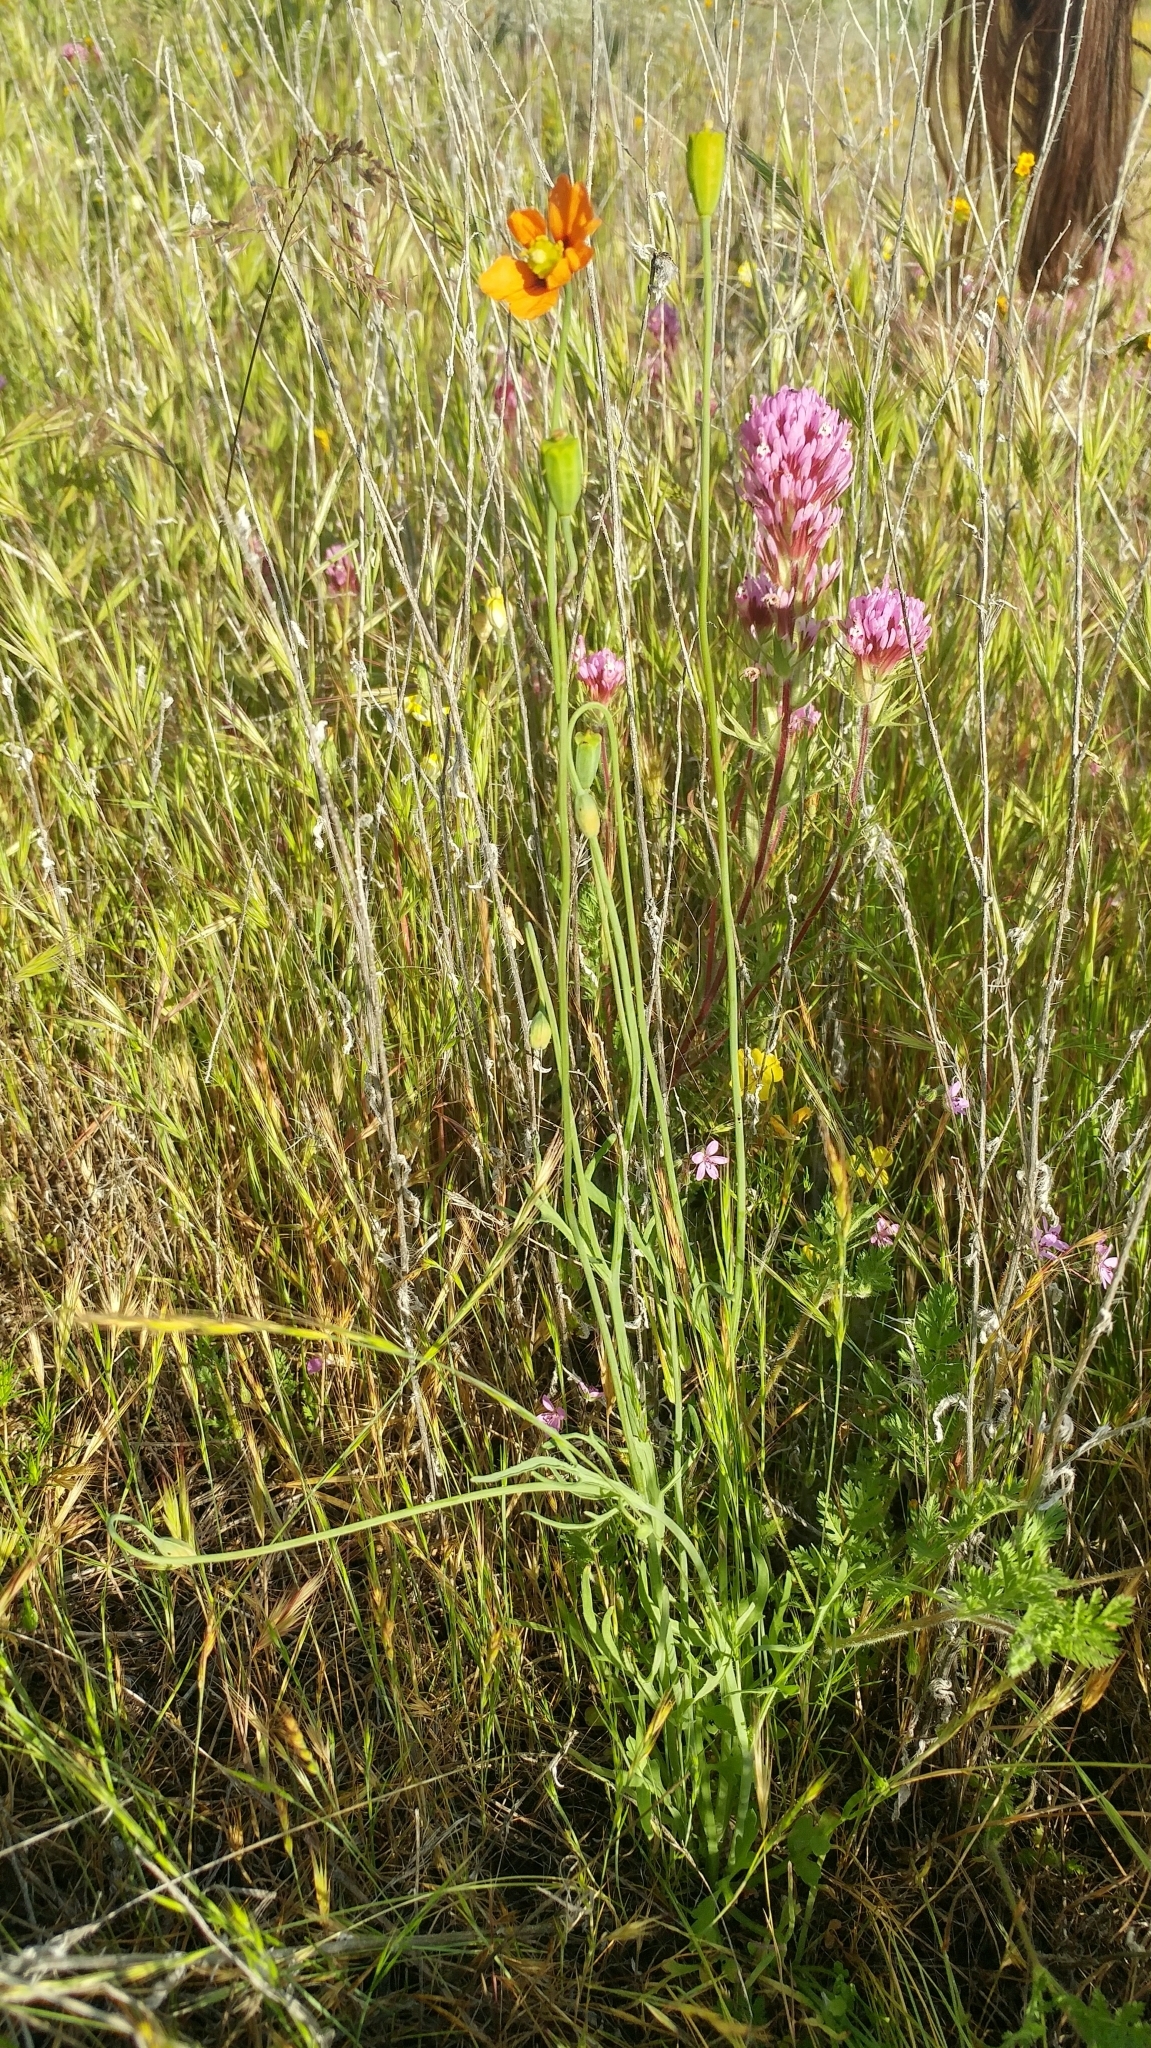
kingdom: Plantae
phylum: Tracheophyta
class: Magnoliopsida
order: Ranunculales
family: Papaveraceae
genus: Stylomecon
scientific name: Stylomecon heterophylla
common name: Flaming-poppy
